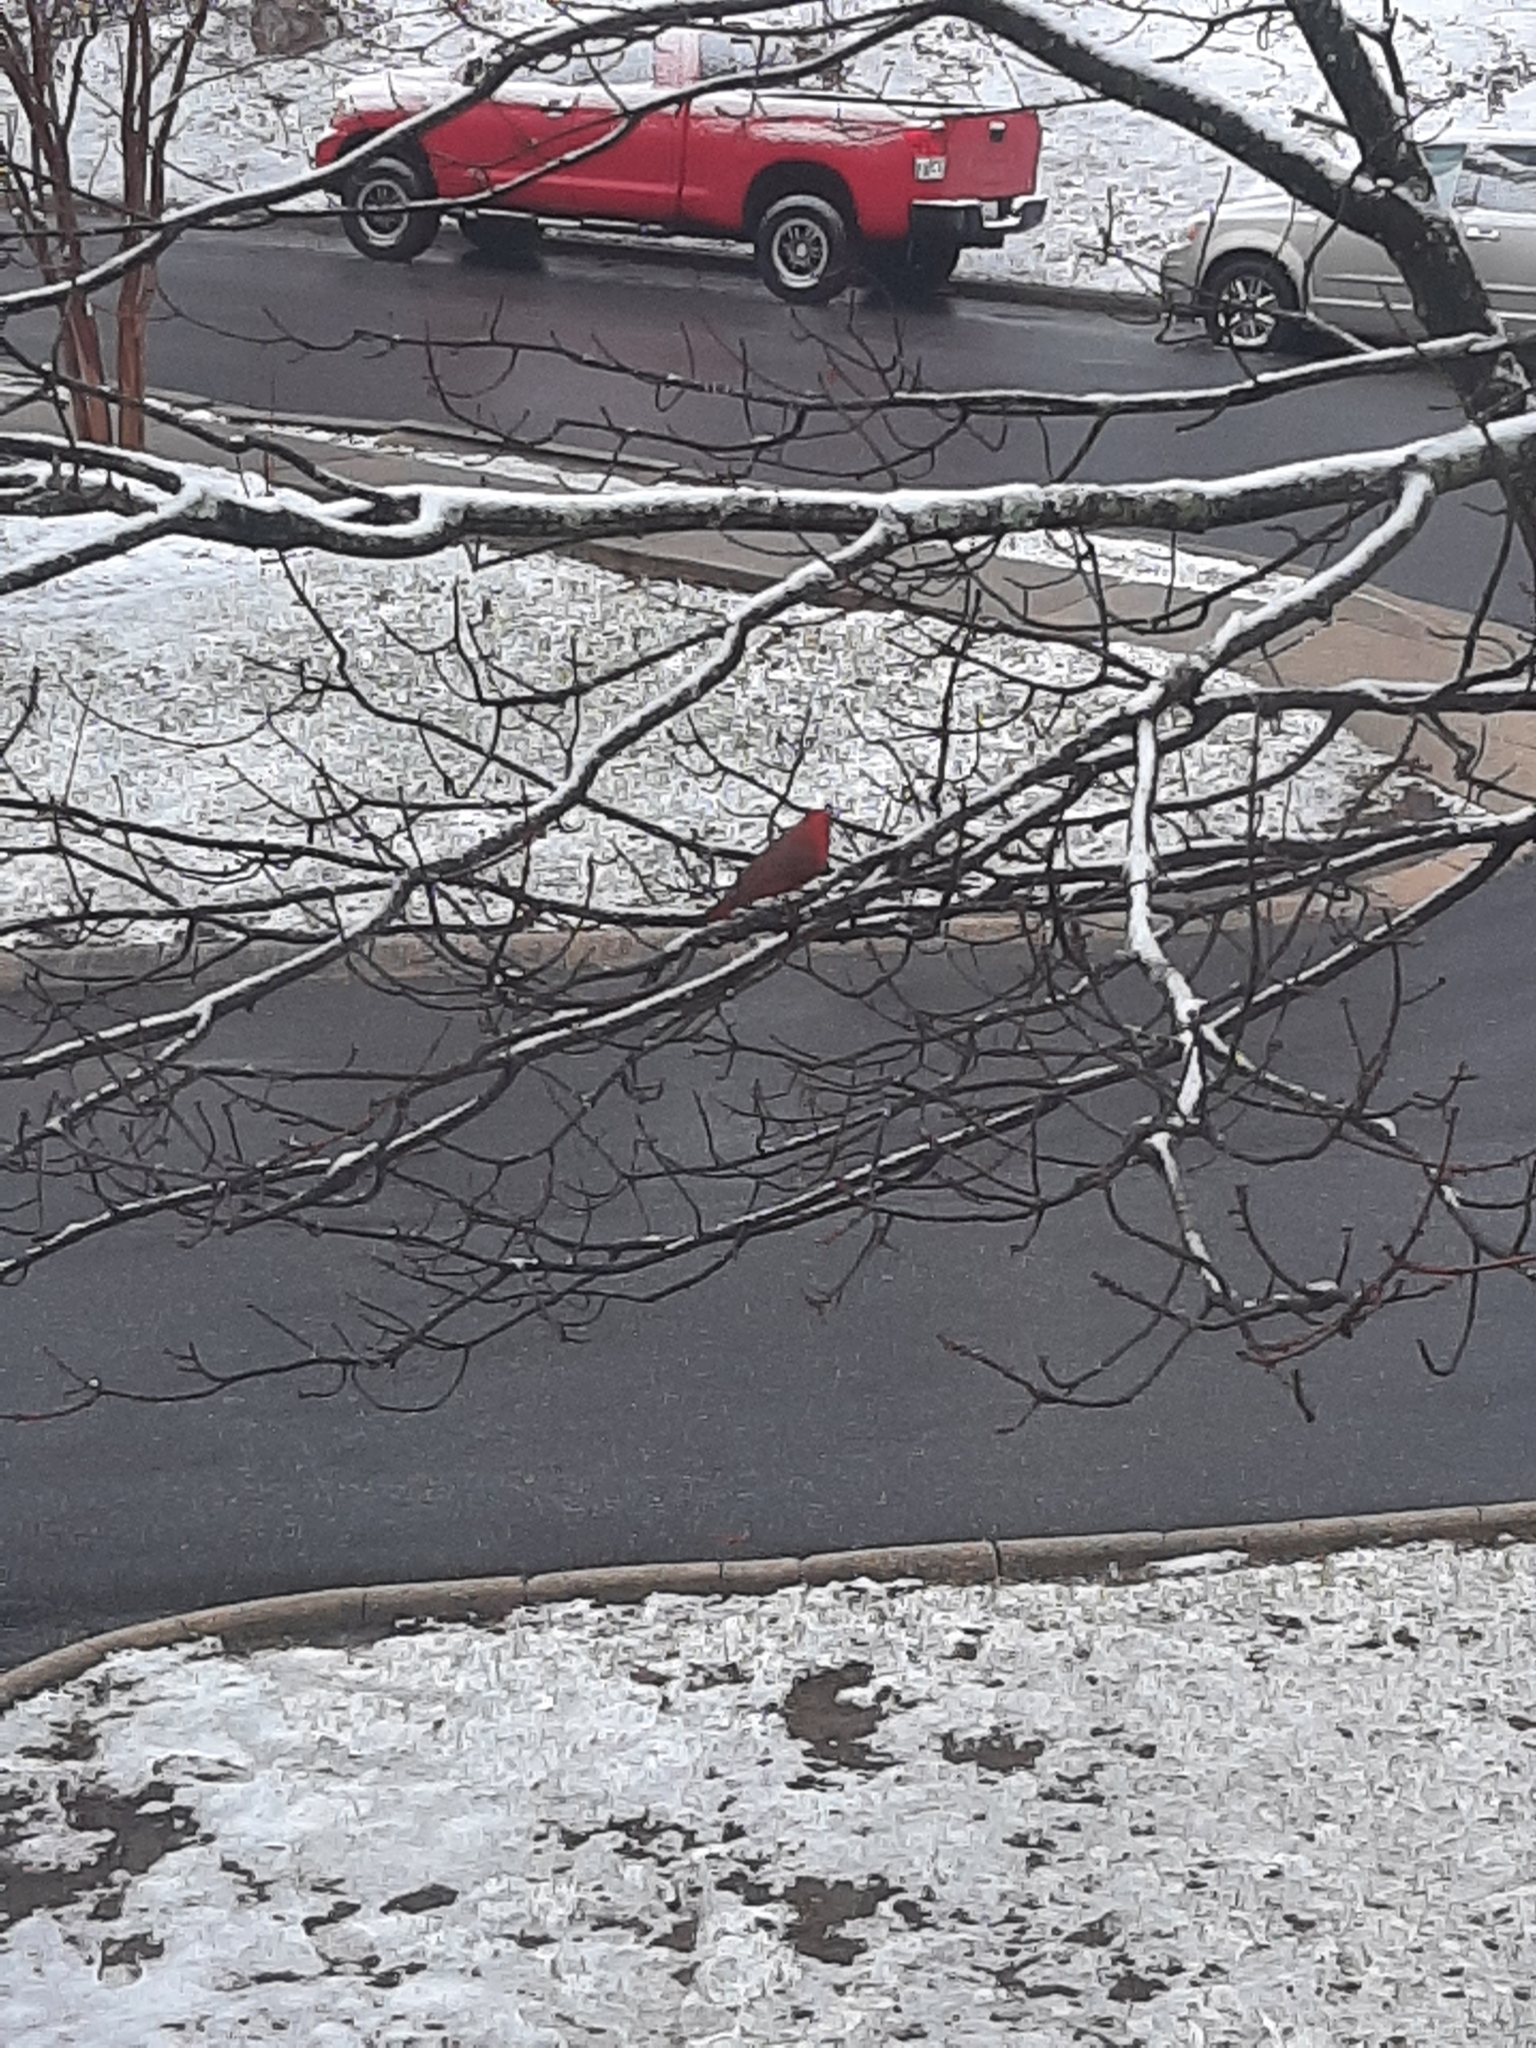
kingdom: Animalia
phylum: Chordata
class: Aves
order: Passeriformes
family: Cardinalidae
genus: Cardinalis
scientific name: Cardinalis cardinalis
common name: Northern cardinal
